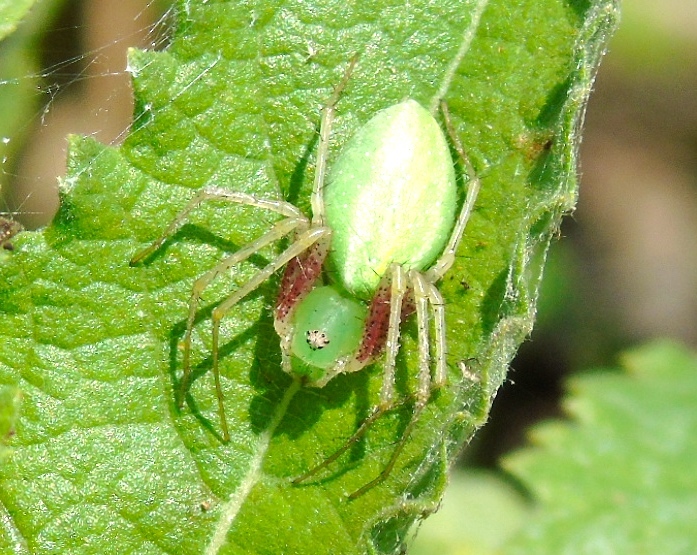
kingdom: Animalia
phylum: Arthropoda
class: Arachnida
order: Araneae
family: Oxyopidae
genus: Peucetia
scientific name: Peucetia longipalpis
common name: Lynx spiders
